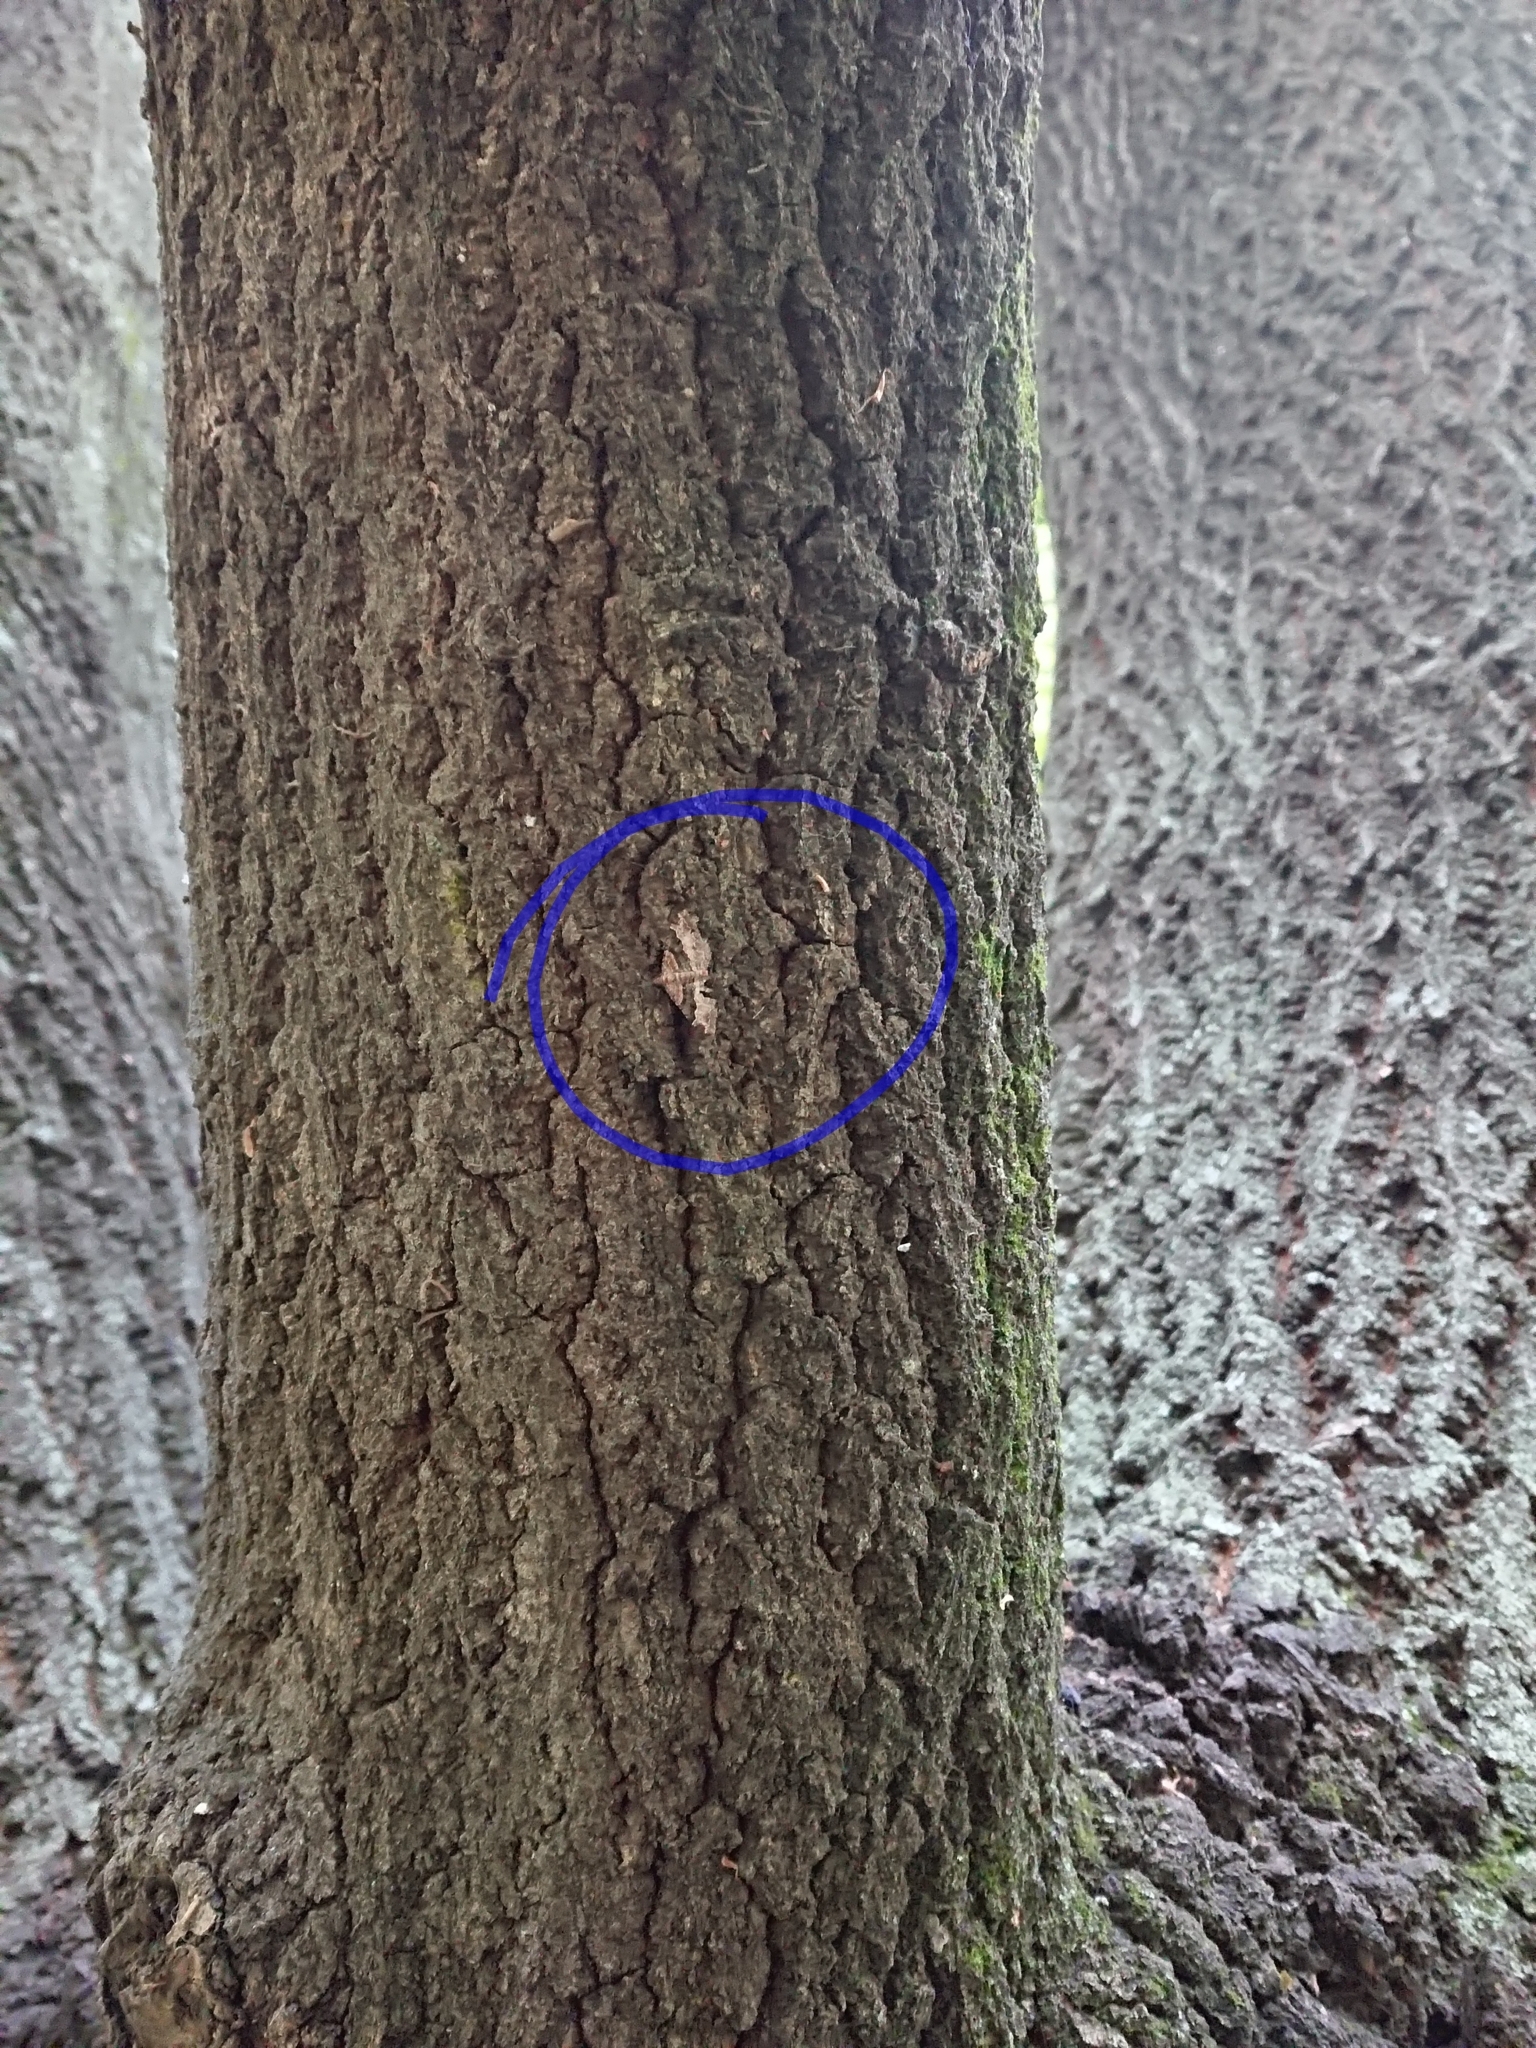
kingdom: Animalia
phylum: Arthropoda
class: Insecta
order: Lepidoptera
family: Geometridae
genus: Epyaxa
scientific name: Epyaxa lucidata
